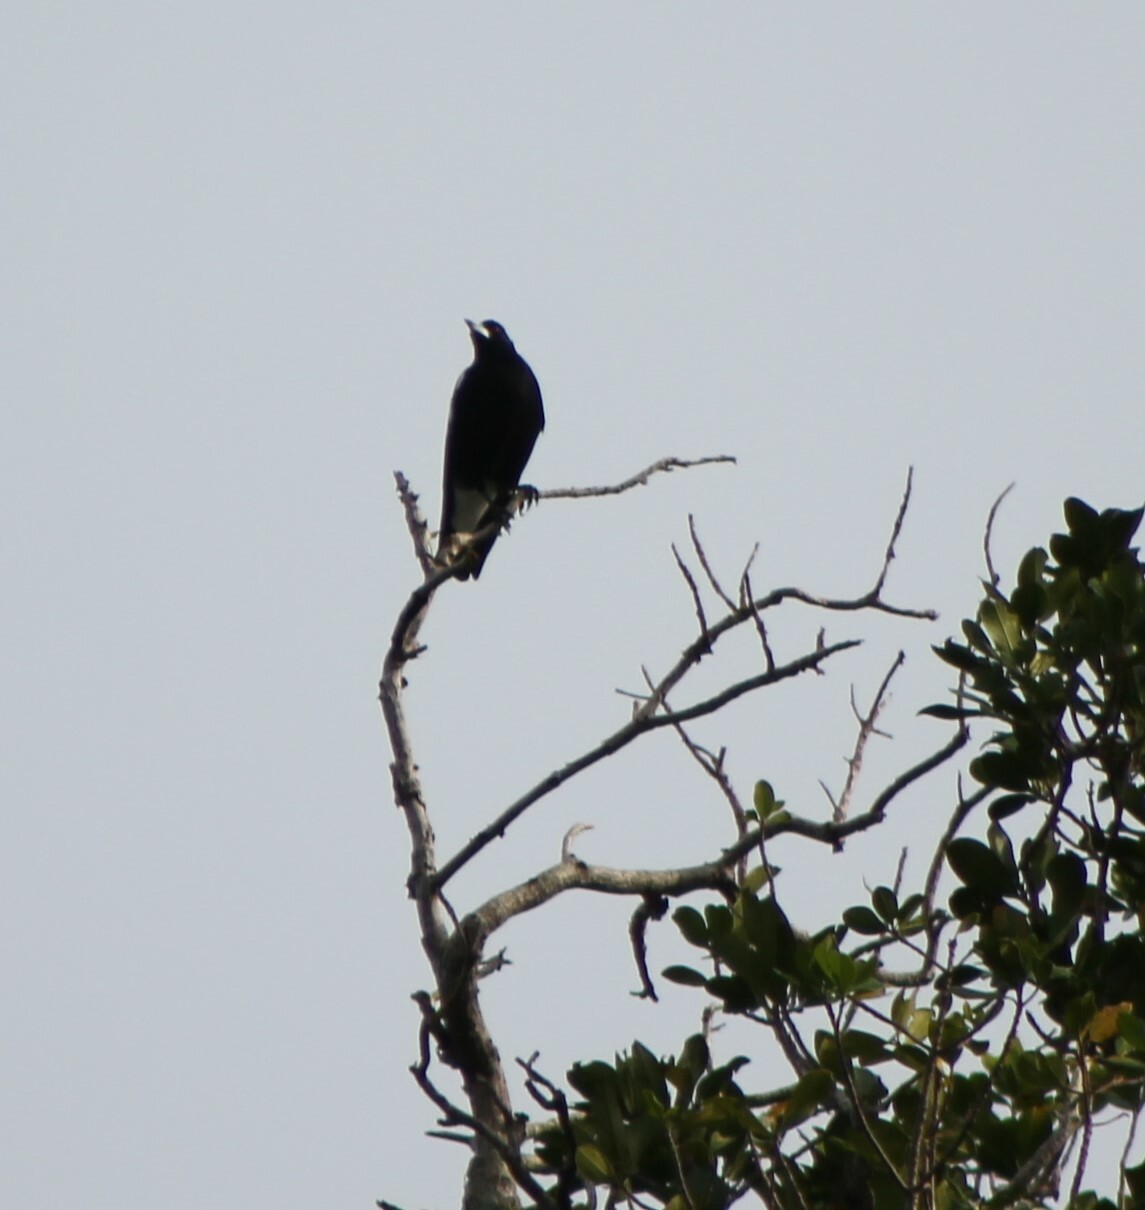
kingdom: Animalia
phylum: Chordata
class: Aves
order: Passeriformes
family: Cracticidae
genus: Gymnorhina
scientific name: Gymnorhina tibicen
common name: Australian magpie
